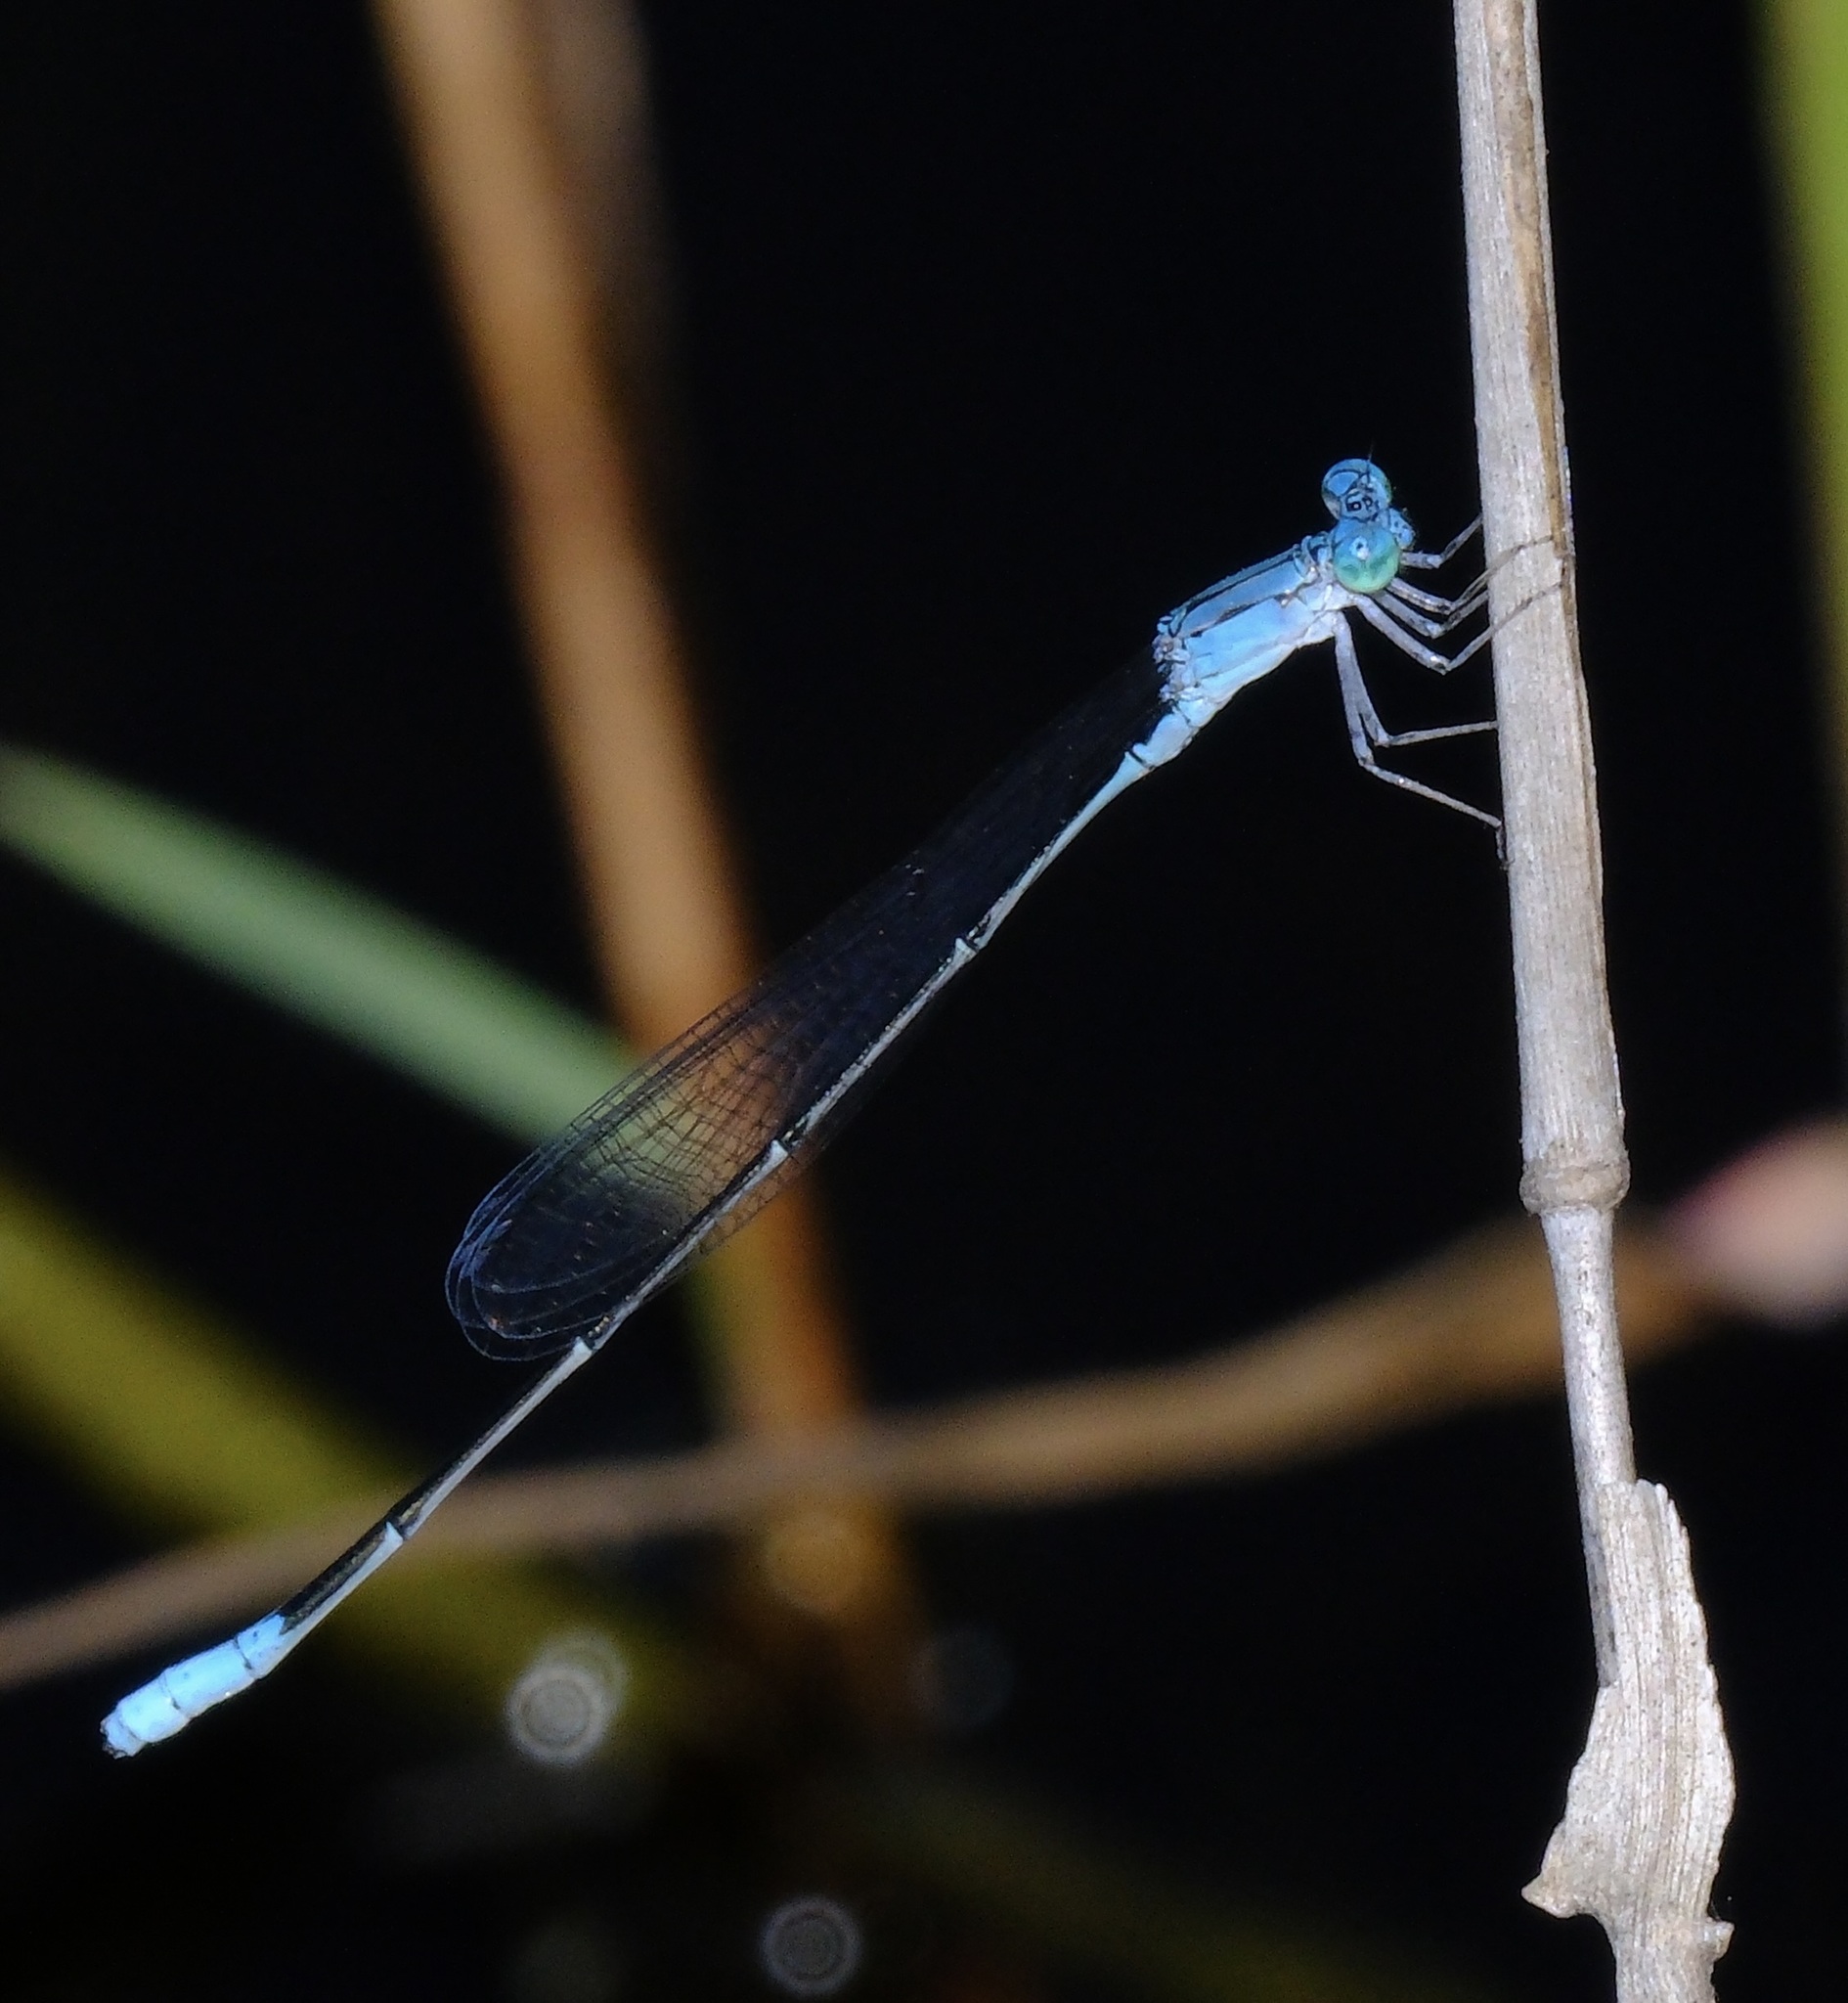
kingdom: Animalia
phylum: Arthropoda
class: Insecta
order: Odonata
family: Coenagrionidae
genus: Enallagma
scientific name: Enallagma daeckii
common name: Attenuated bluet
